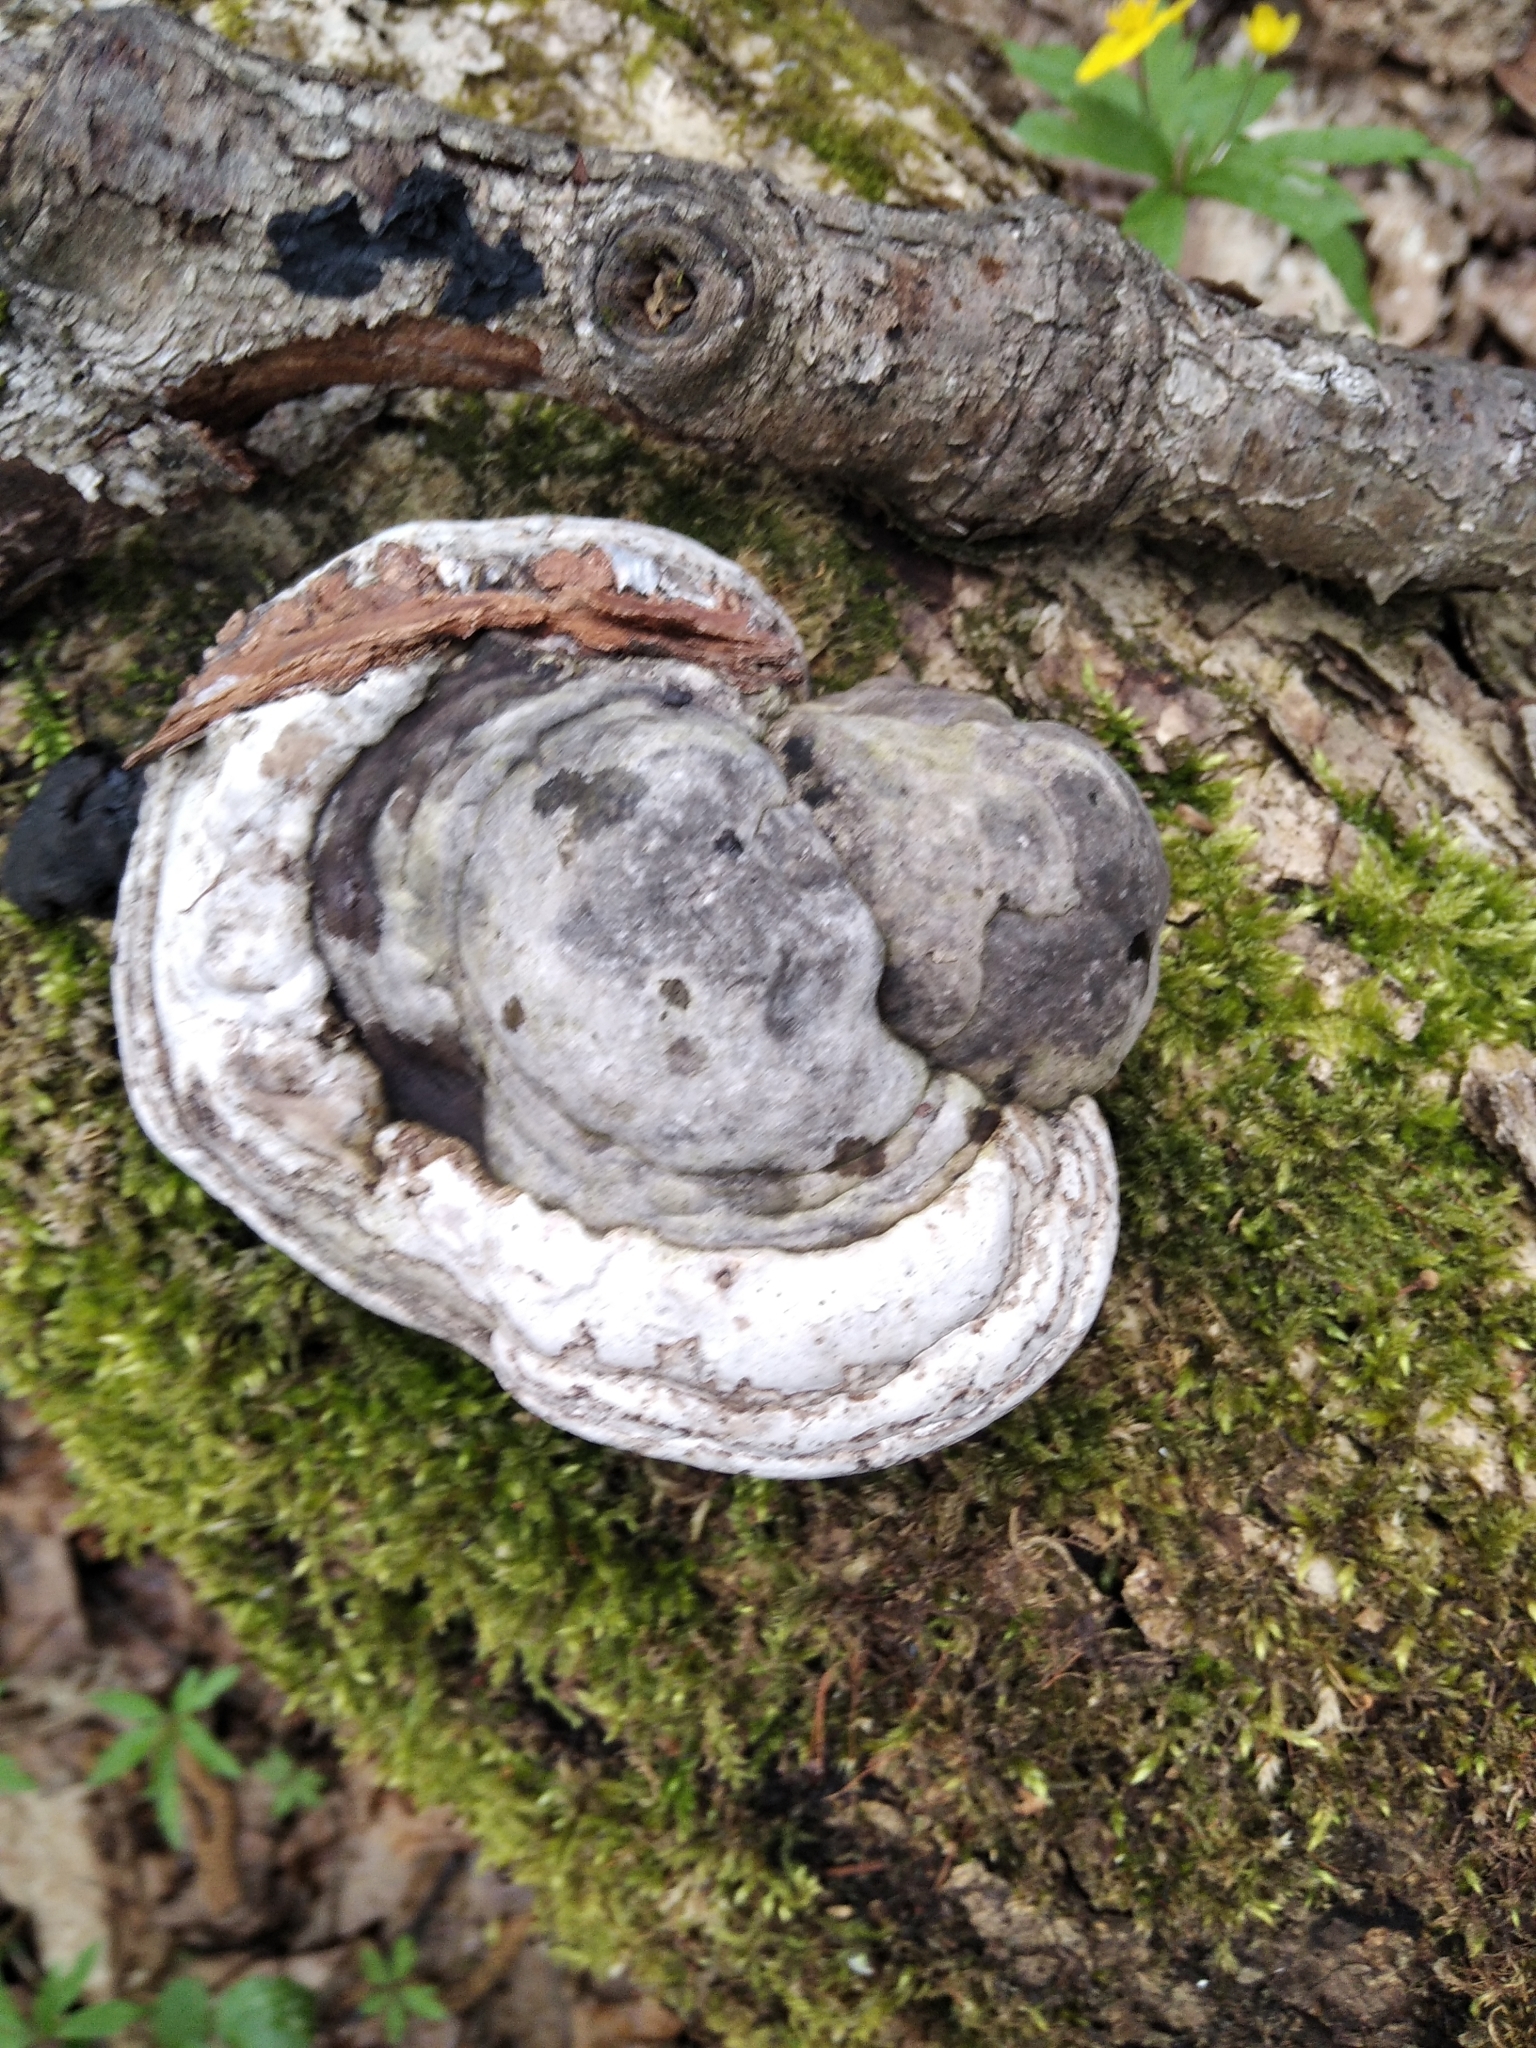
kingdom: Fungi
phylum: Basidiomycota
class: Agaricomycetes
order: Polyporales
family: Polyporaceae
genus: Fomes
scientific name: Fomes fomentarius
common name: Hoof fungus
